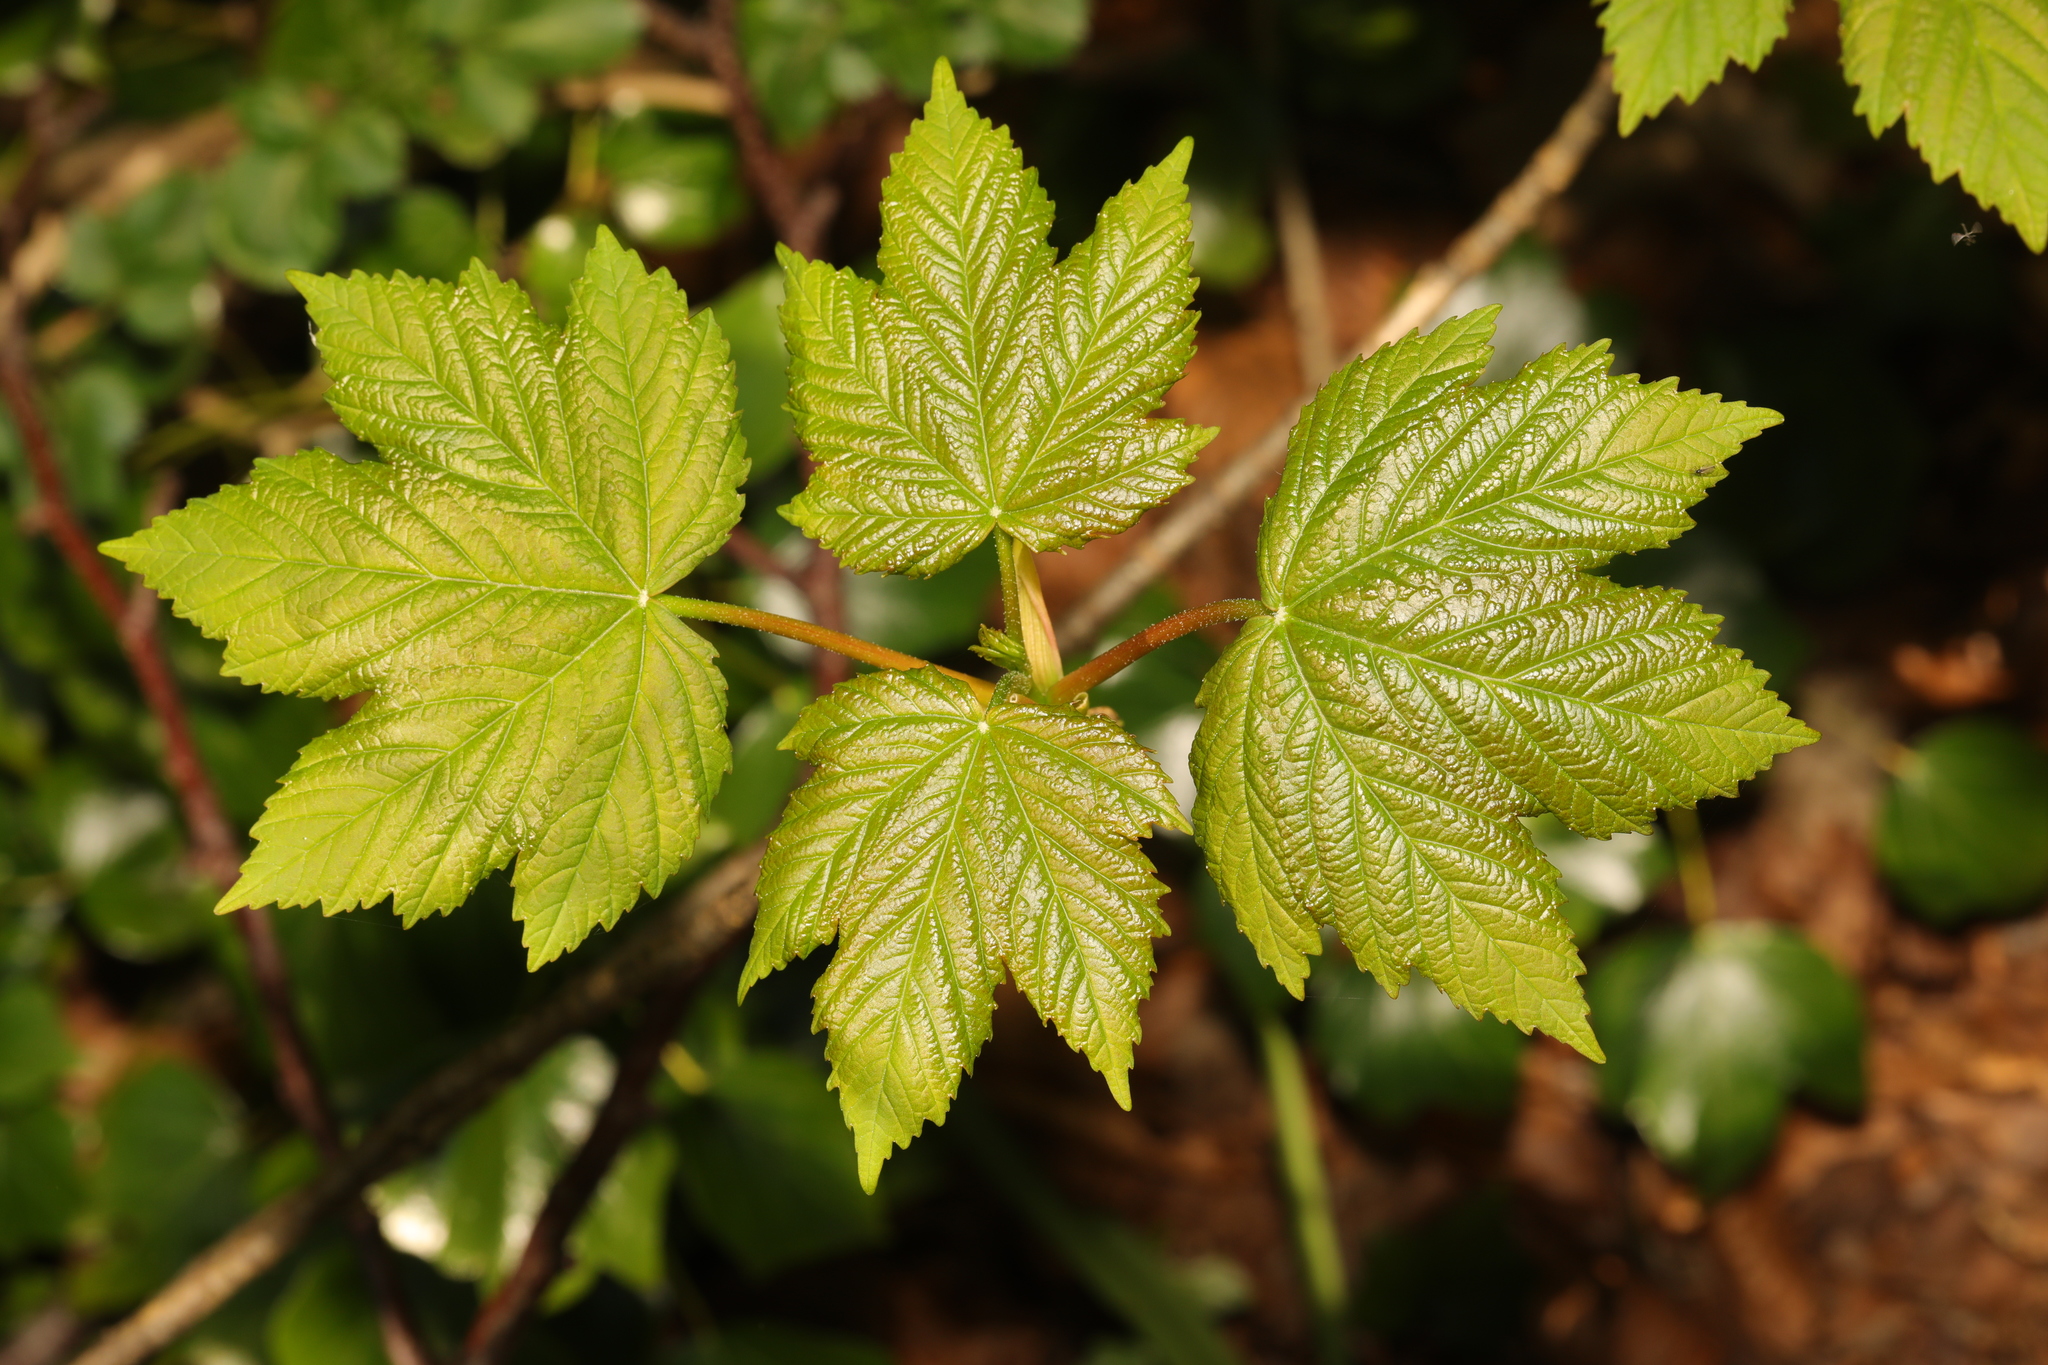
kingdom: Plantae
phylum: Tracheophyta
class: Magnoliopsida
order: Sapindales
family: Sapindaceae
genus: Acer
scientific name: Acer pseudoplatanus
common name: Sycamore
